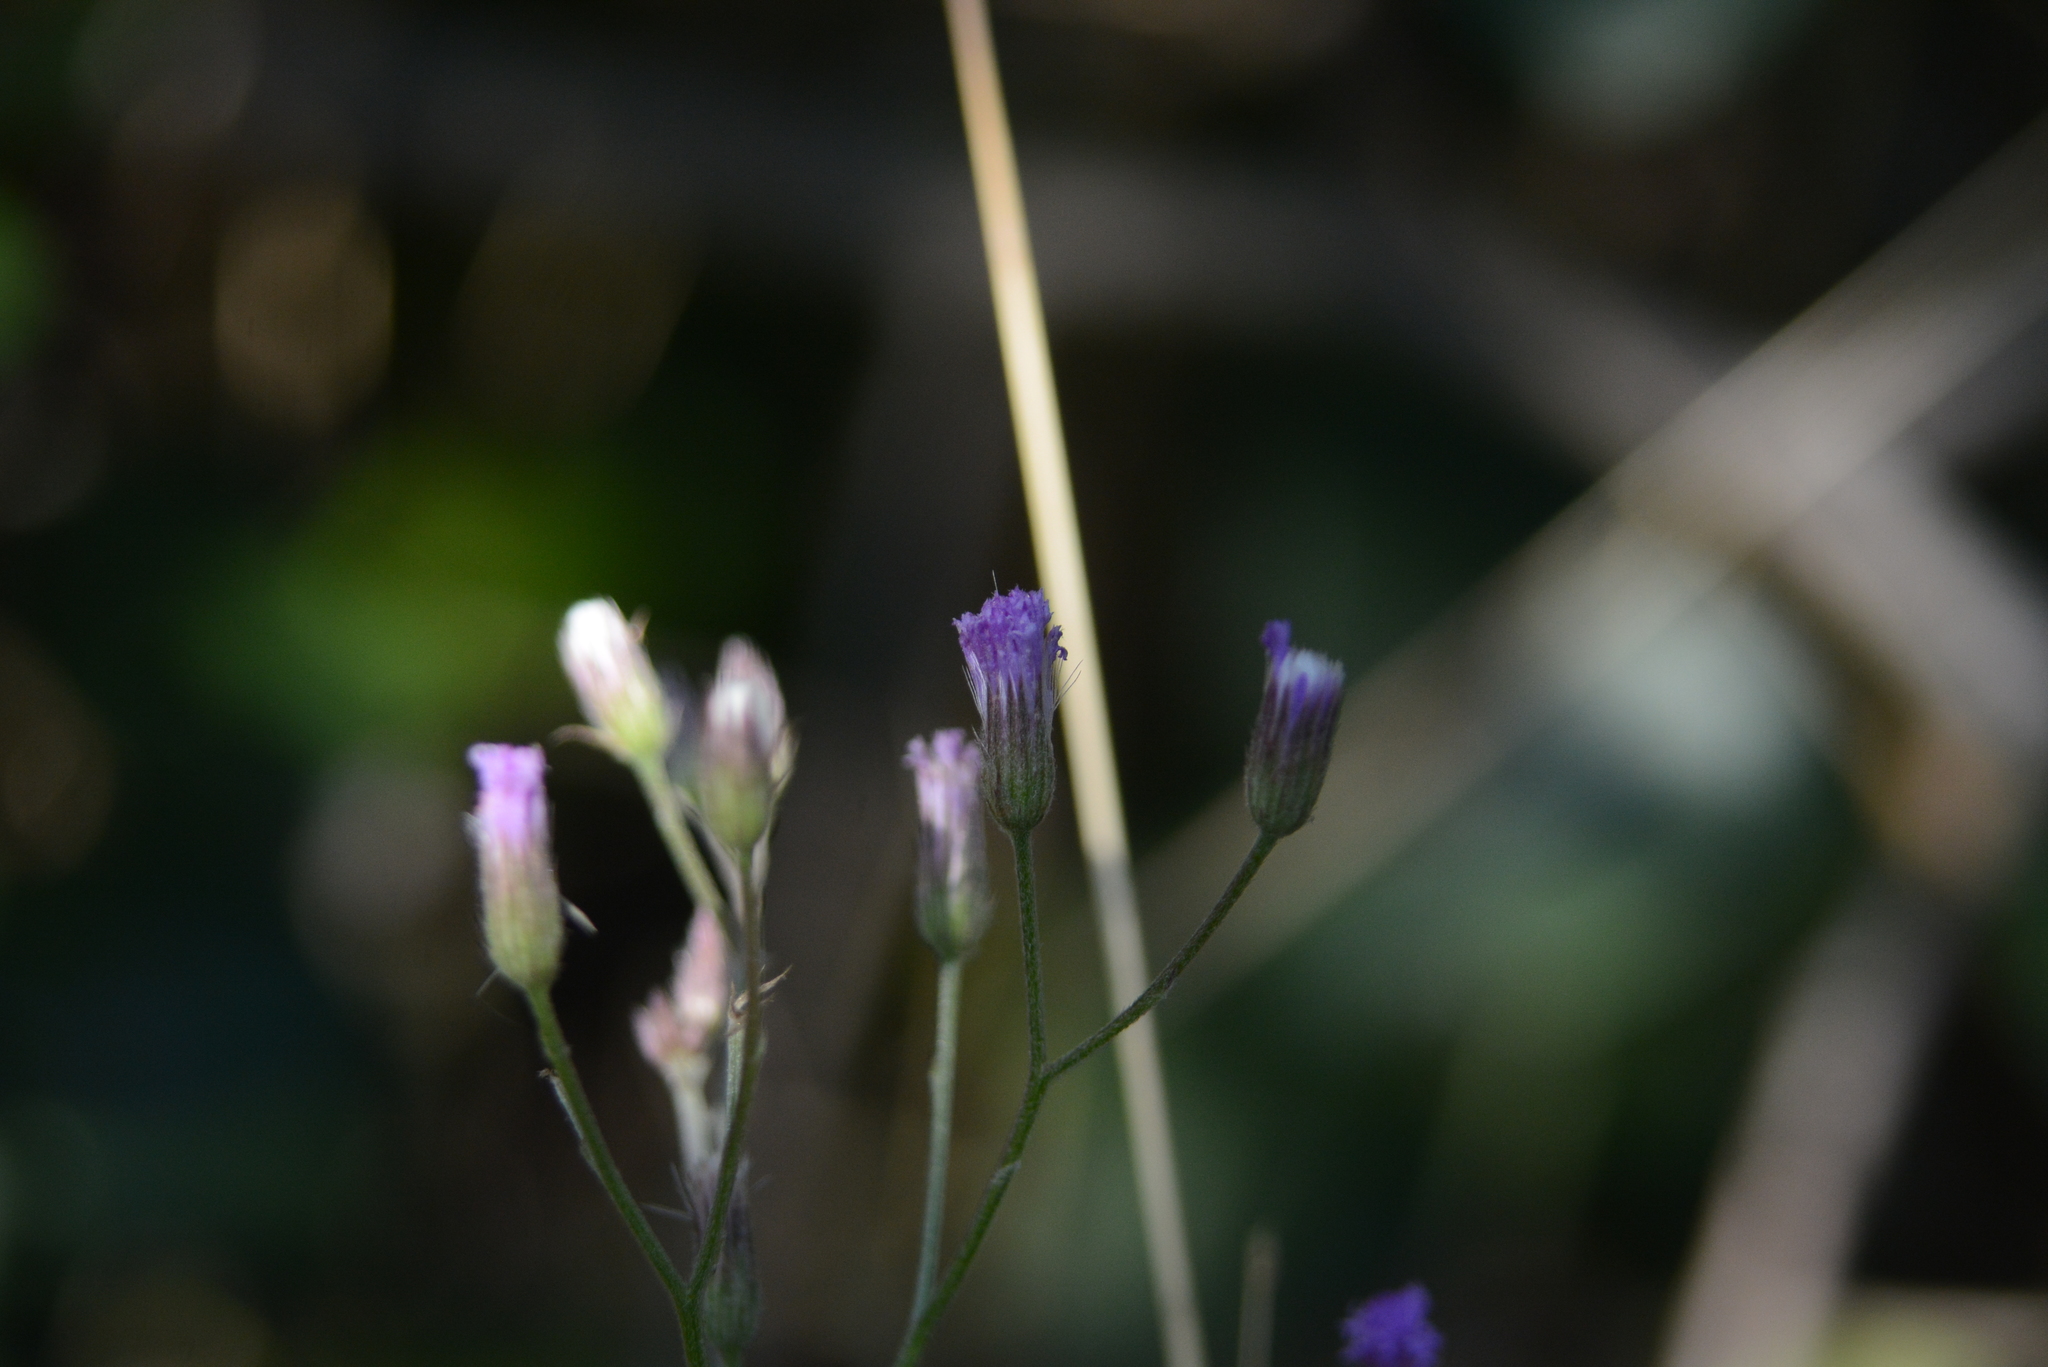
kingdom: Plantae
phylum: Tracheophyta
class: Magnoliopsida
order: Asterales
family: Asteraceae
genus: Cyanthillium
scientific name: Cyanthillium cinereum
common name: Little ironweed
